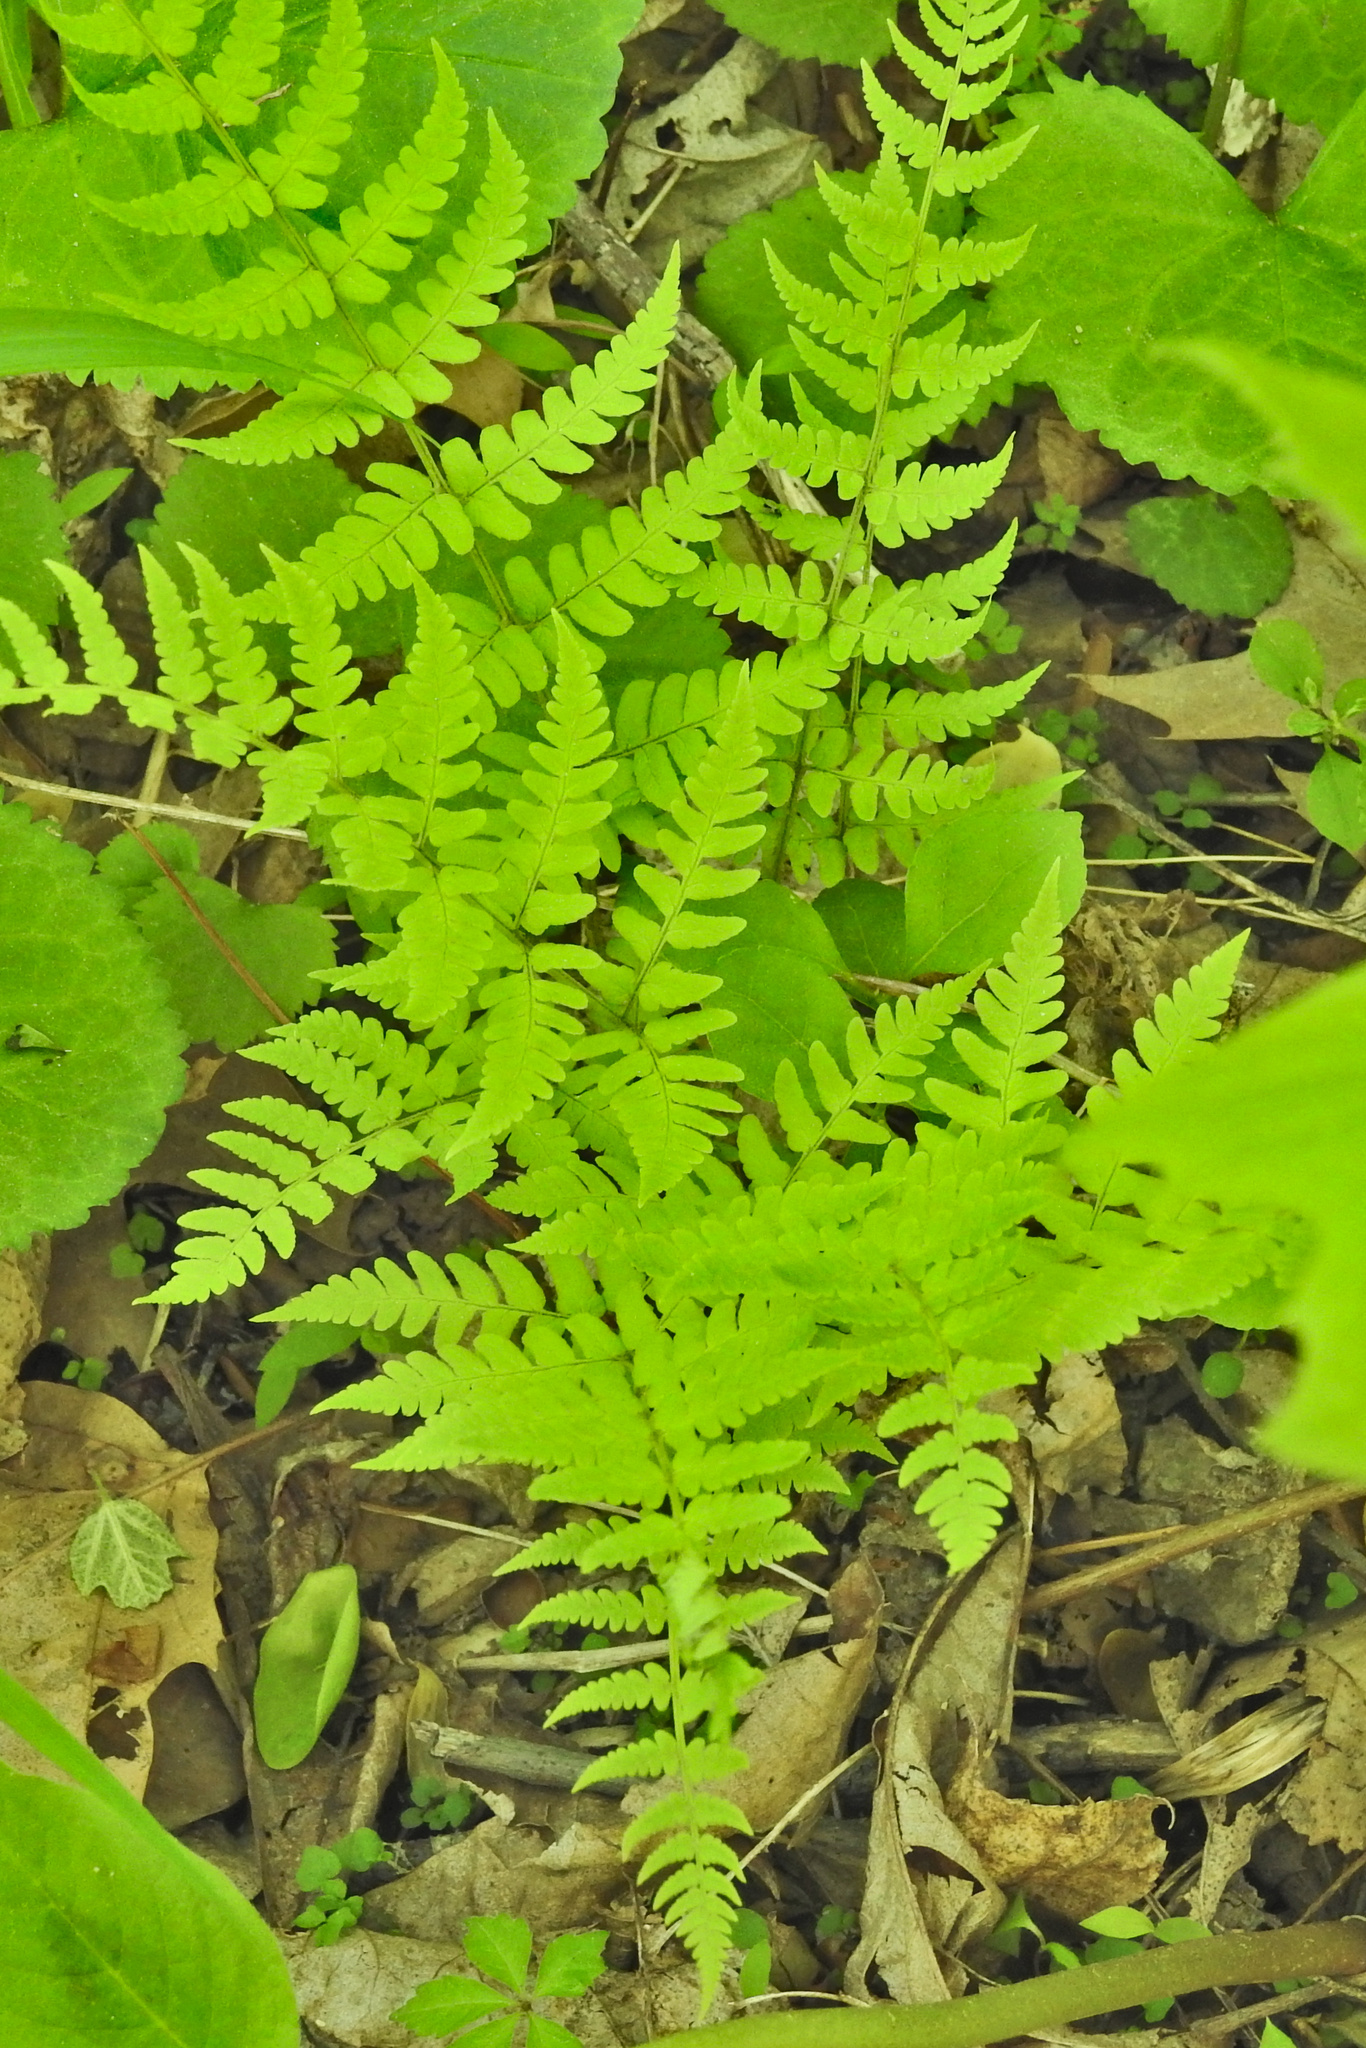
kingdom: Plantae
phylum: Tracheophyta
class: Polypodiopsida
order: Polypodiales
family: Dryopteridaceae
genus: Dryopteris
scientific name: Dryopteris marginalis
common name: Marginal wood fern
